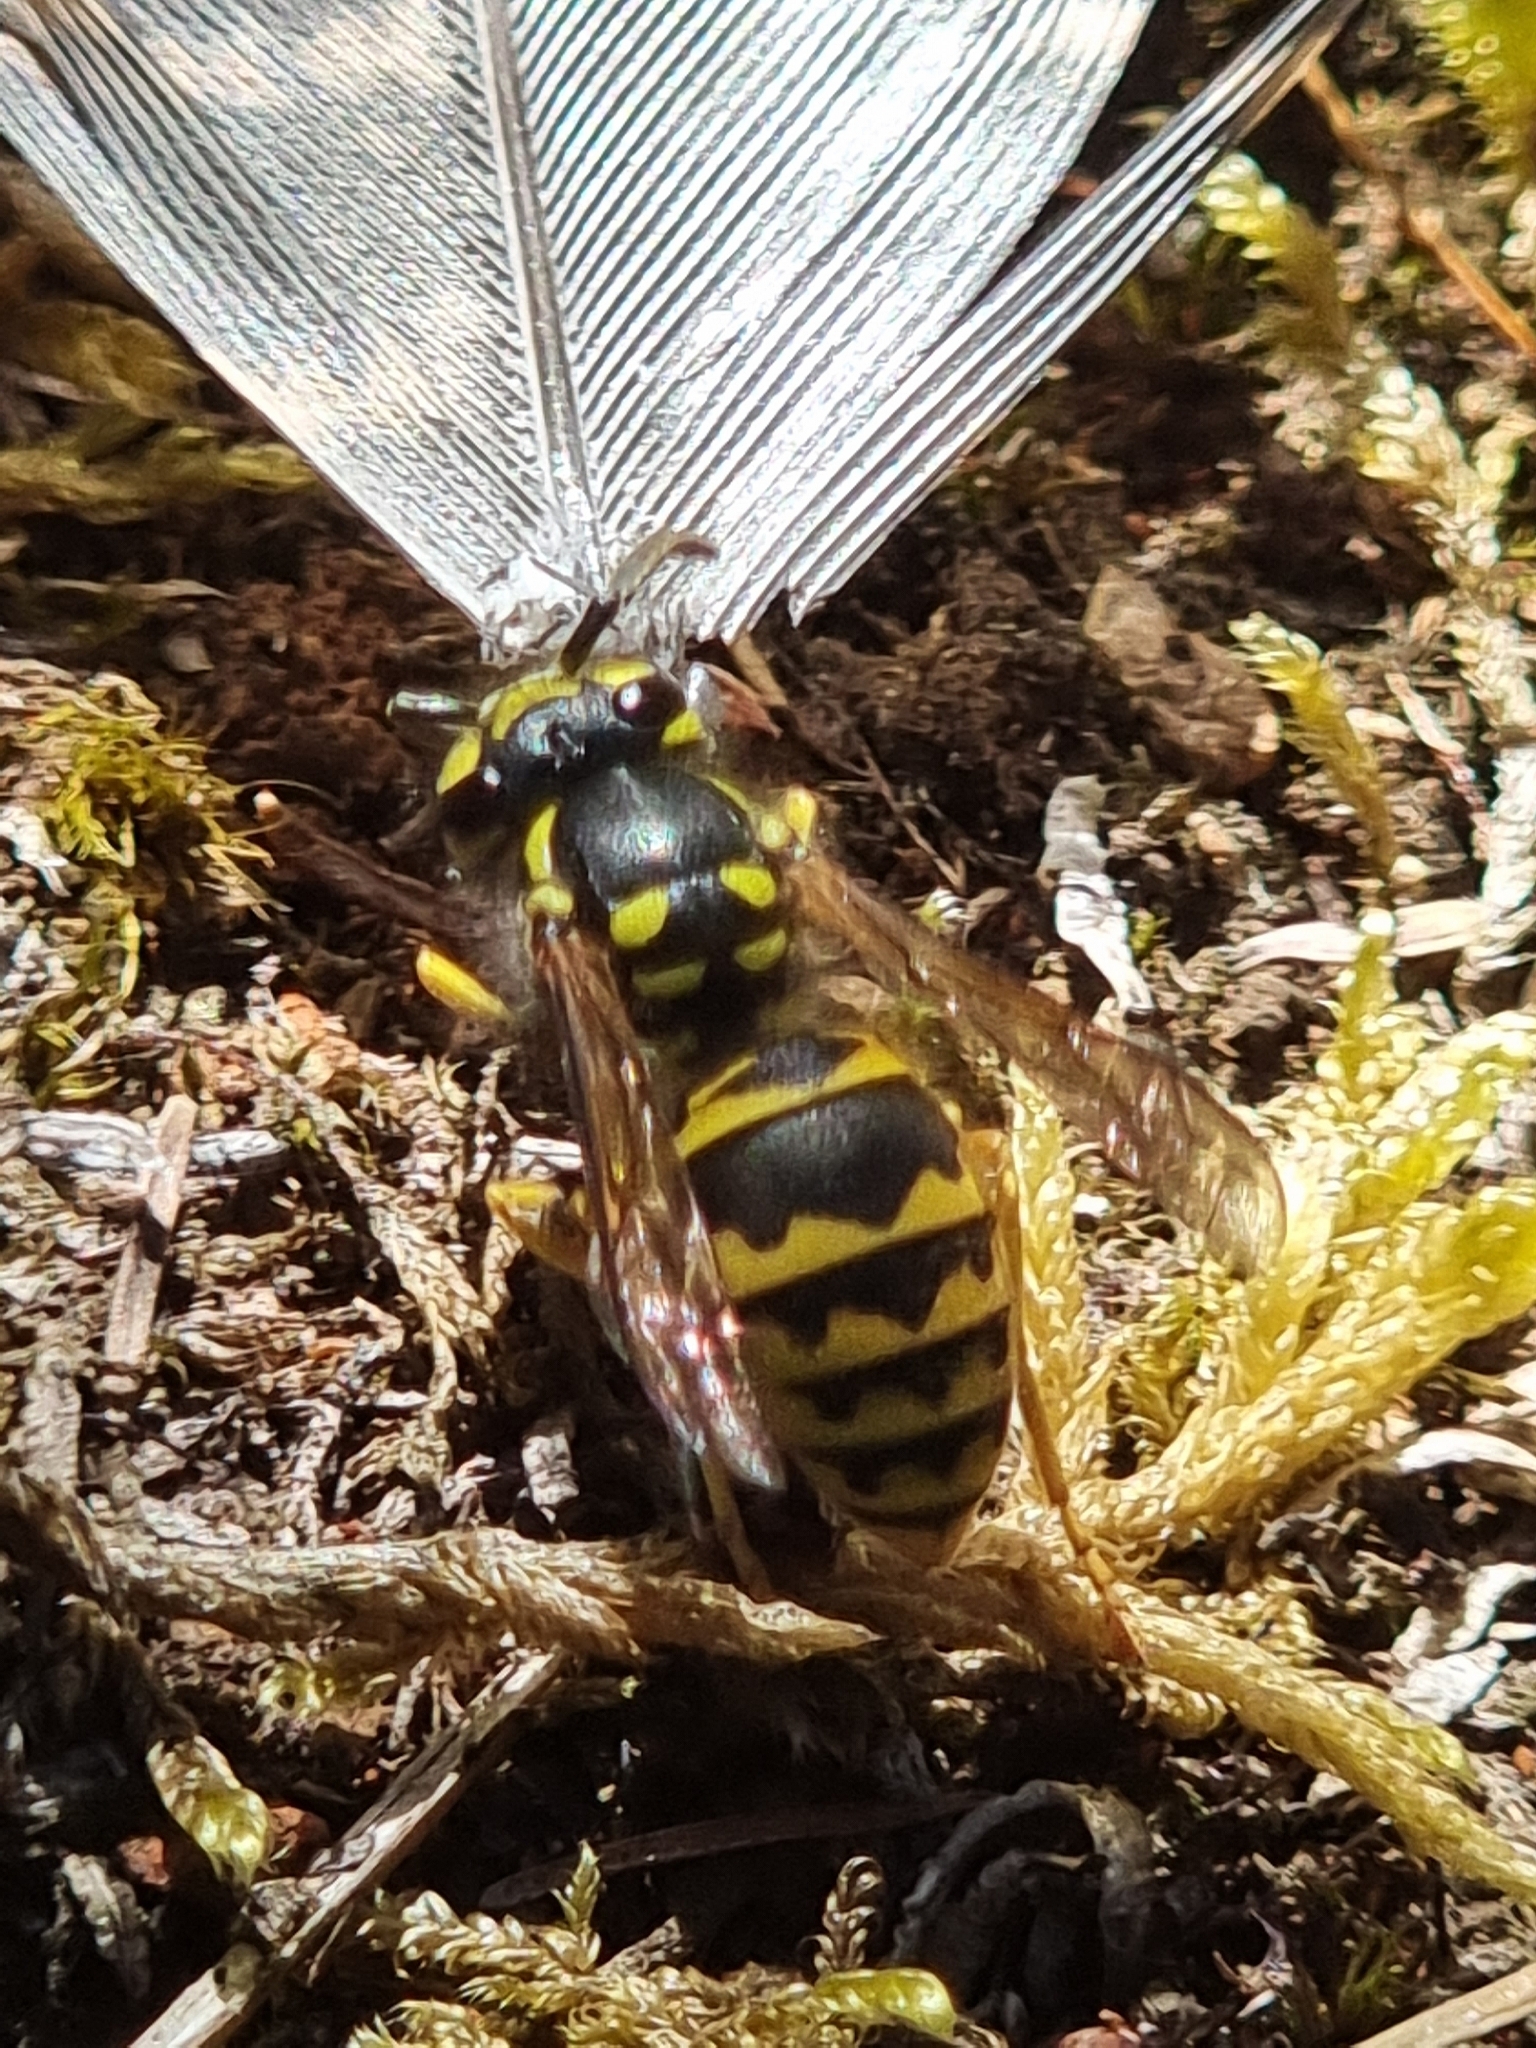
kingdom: Animalia
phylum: Arthropoda
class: Insecta
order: Hymenoptera
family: Vespidae
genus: Vespula
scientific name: Vespula germanica
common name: German wasp
